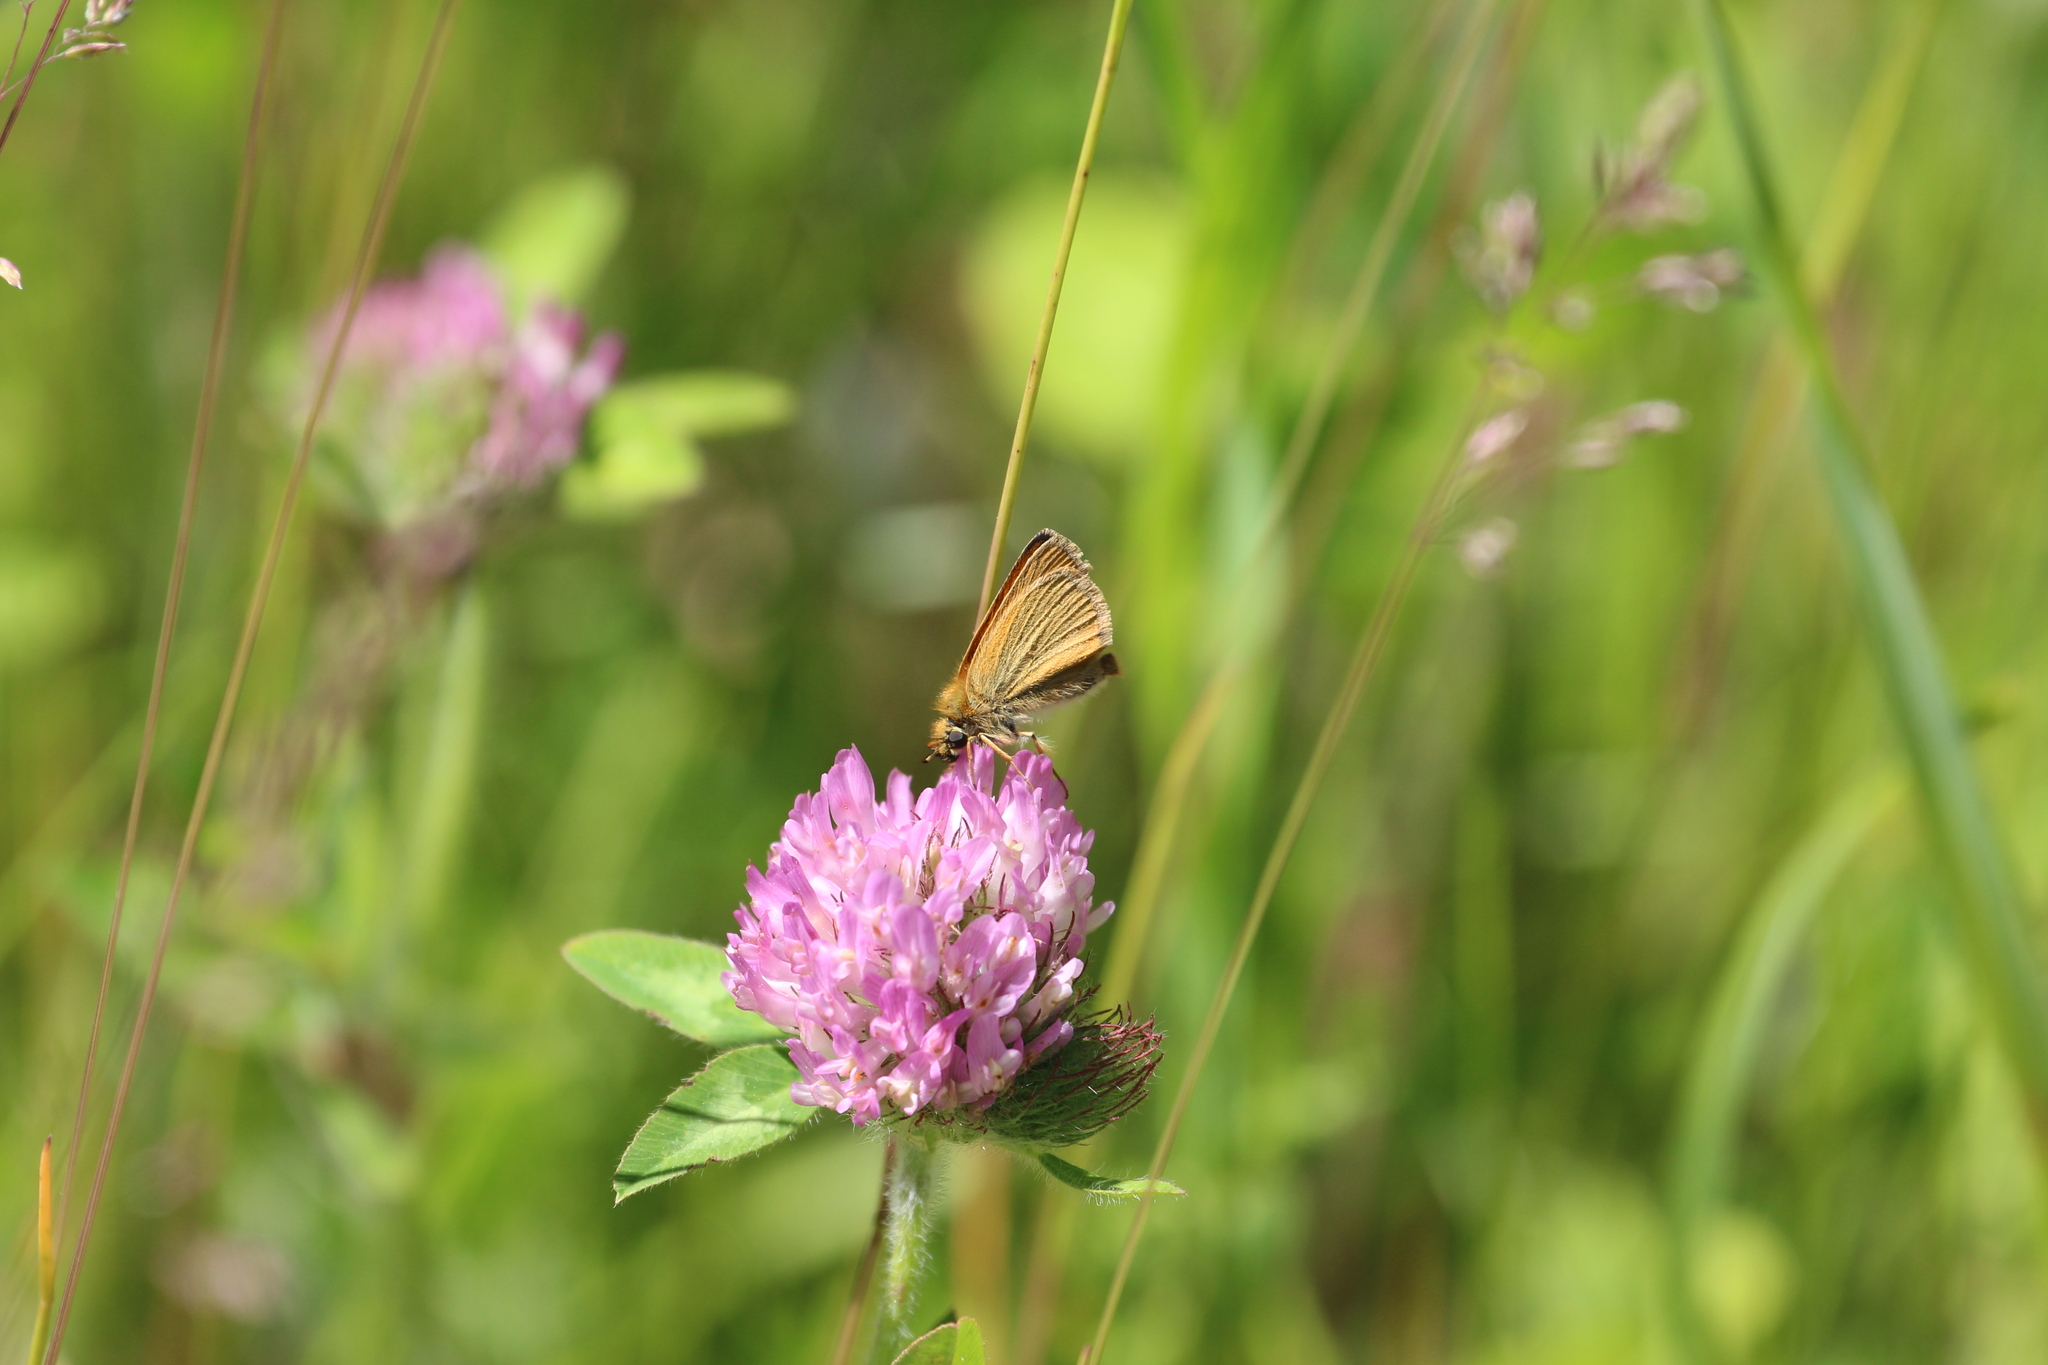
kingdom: Animalia
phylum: Arthropoda
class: Insecta
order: Lepidoptera
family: Hesperiidae
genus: Thymelicus
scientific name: Thymelicus lineola
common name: Essex skipper
